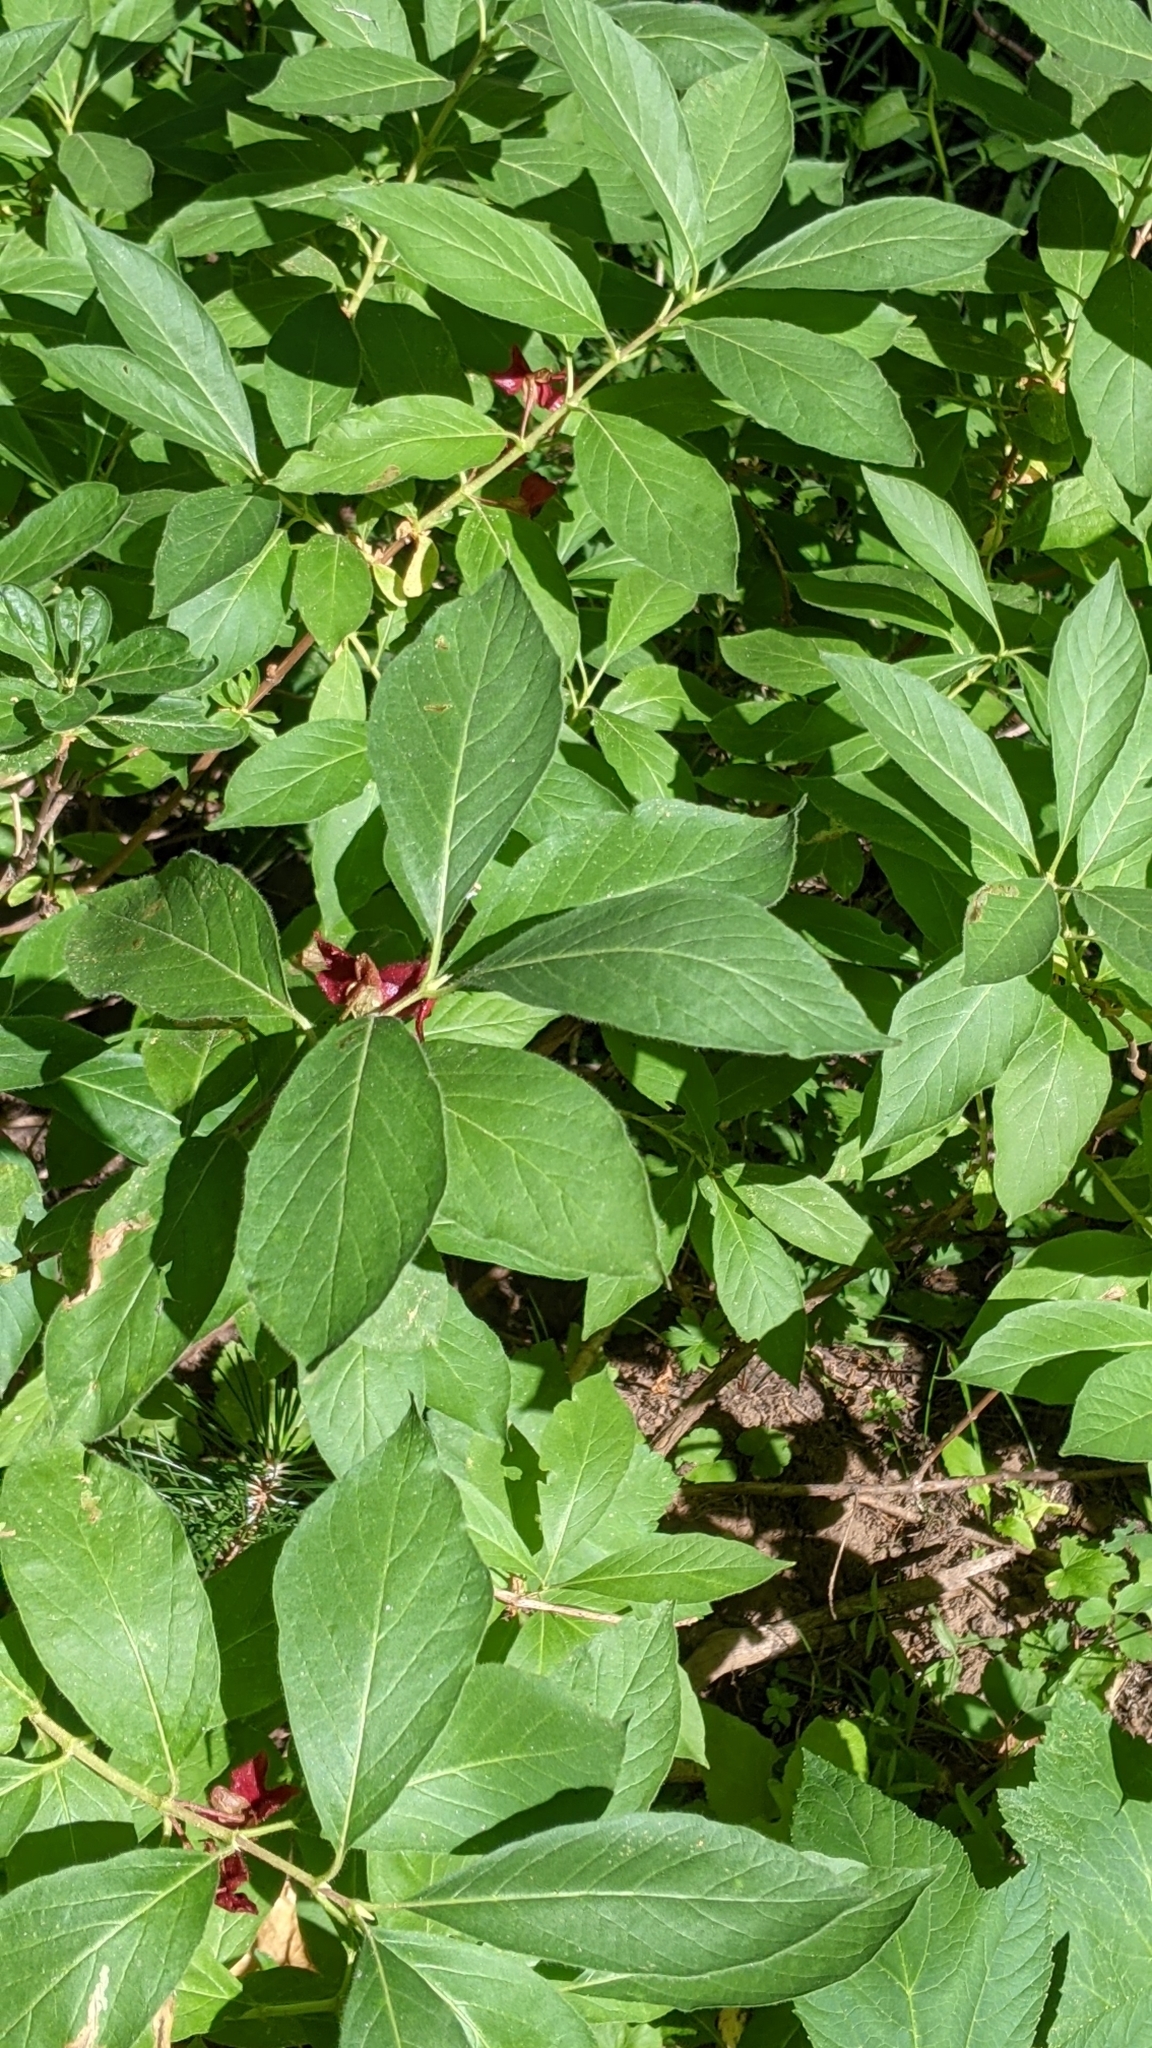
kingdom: Plantae
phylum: Tracheophyta
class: Magnoliopsida
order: Dipsacales
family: Caprifoliaceae
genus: Lonicera
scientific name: Lonicera involucrata
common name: Californian honeysuckle
